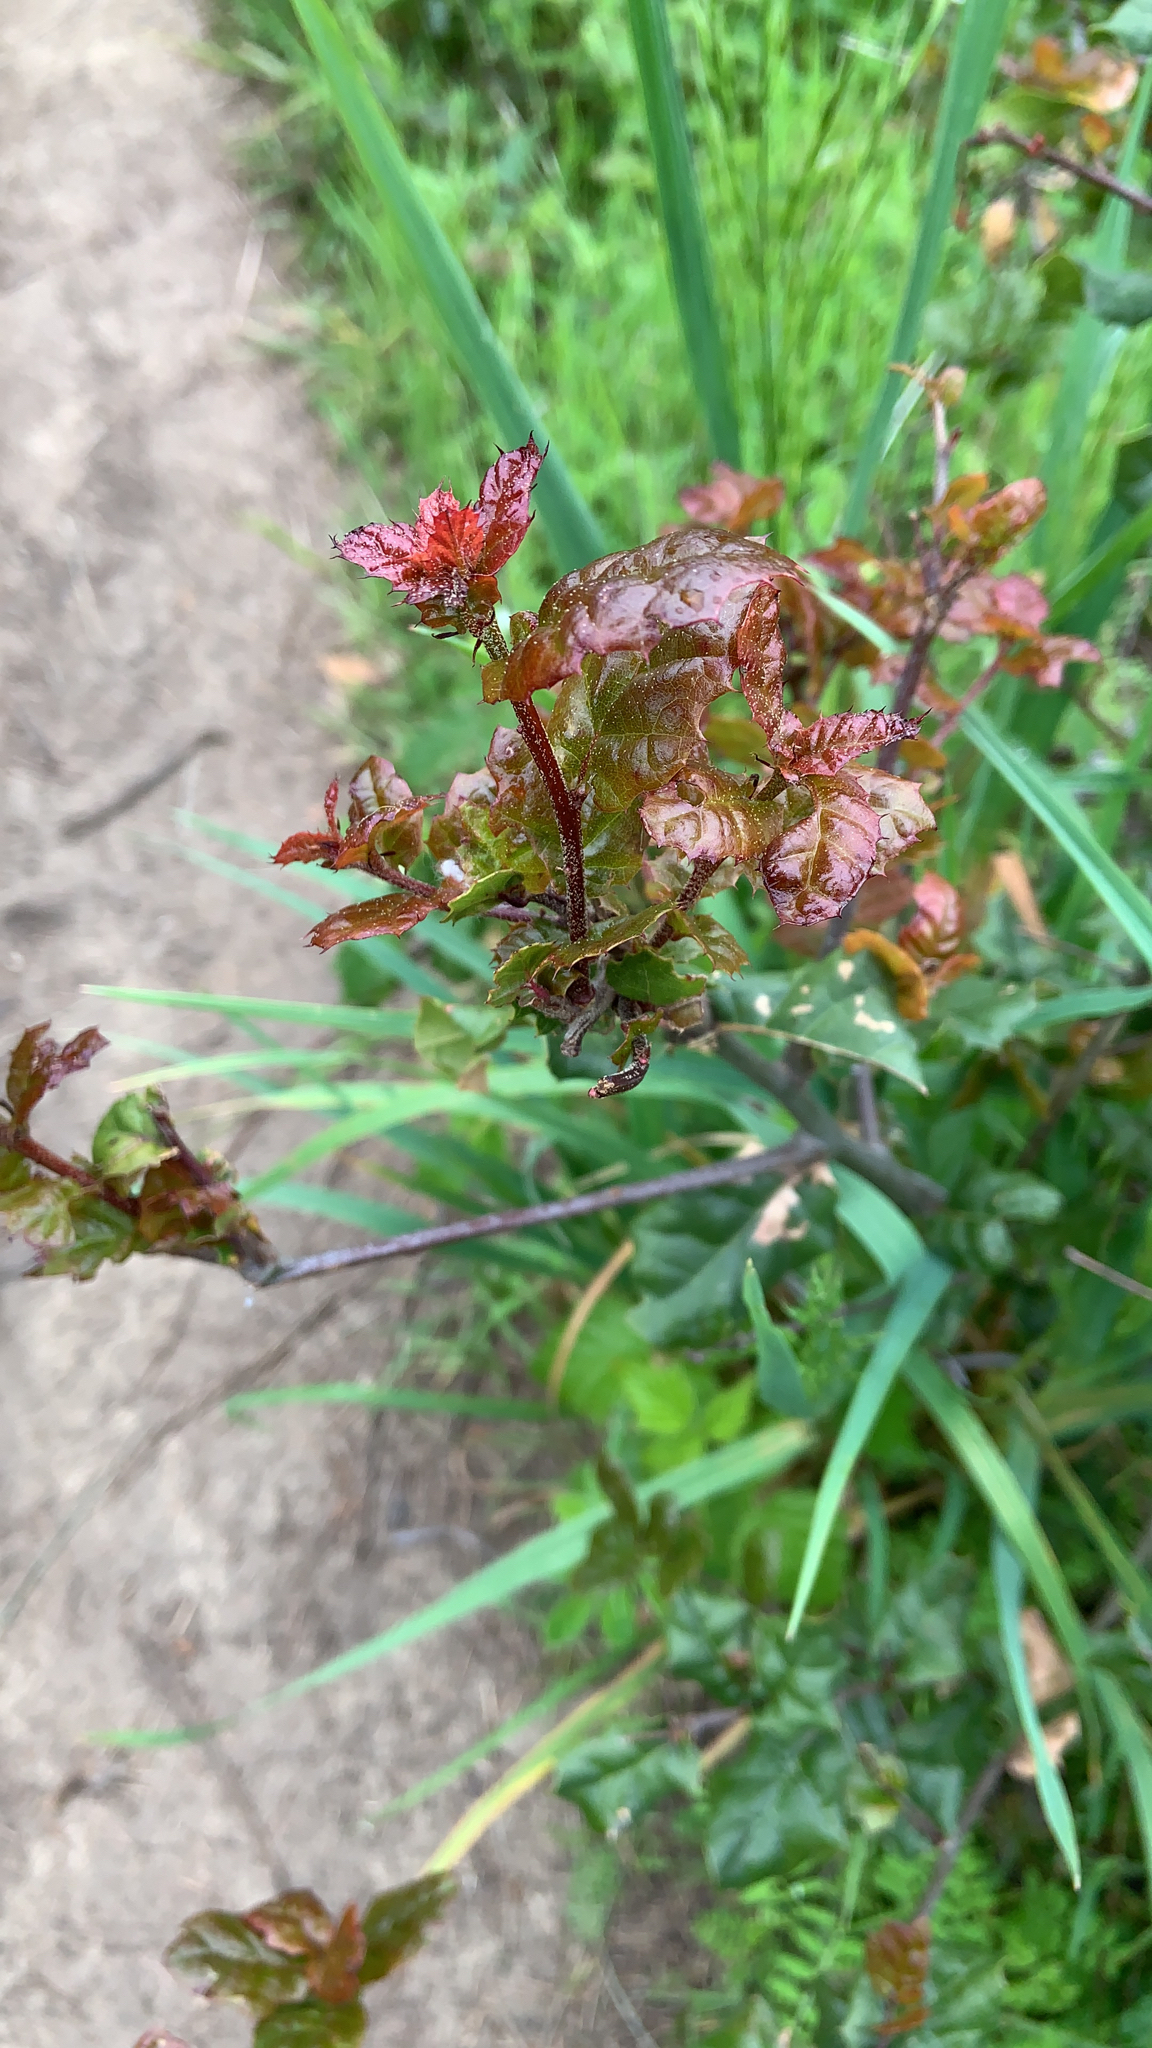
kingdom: Plantae
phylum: Tracheophyta
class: Magnoliopsida
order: Sapindales
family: Anacardiaceae
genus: Toxicodendron
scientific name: Toxicodendron diversilobum
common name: Pacific poison-oak
